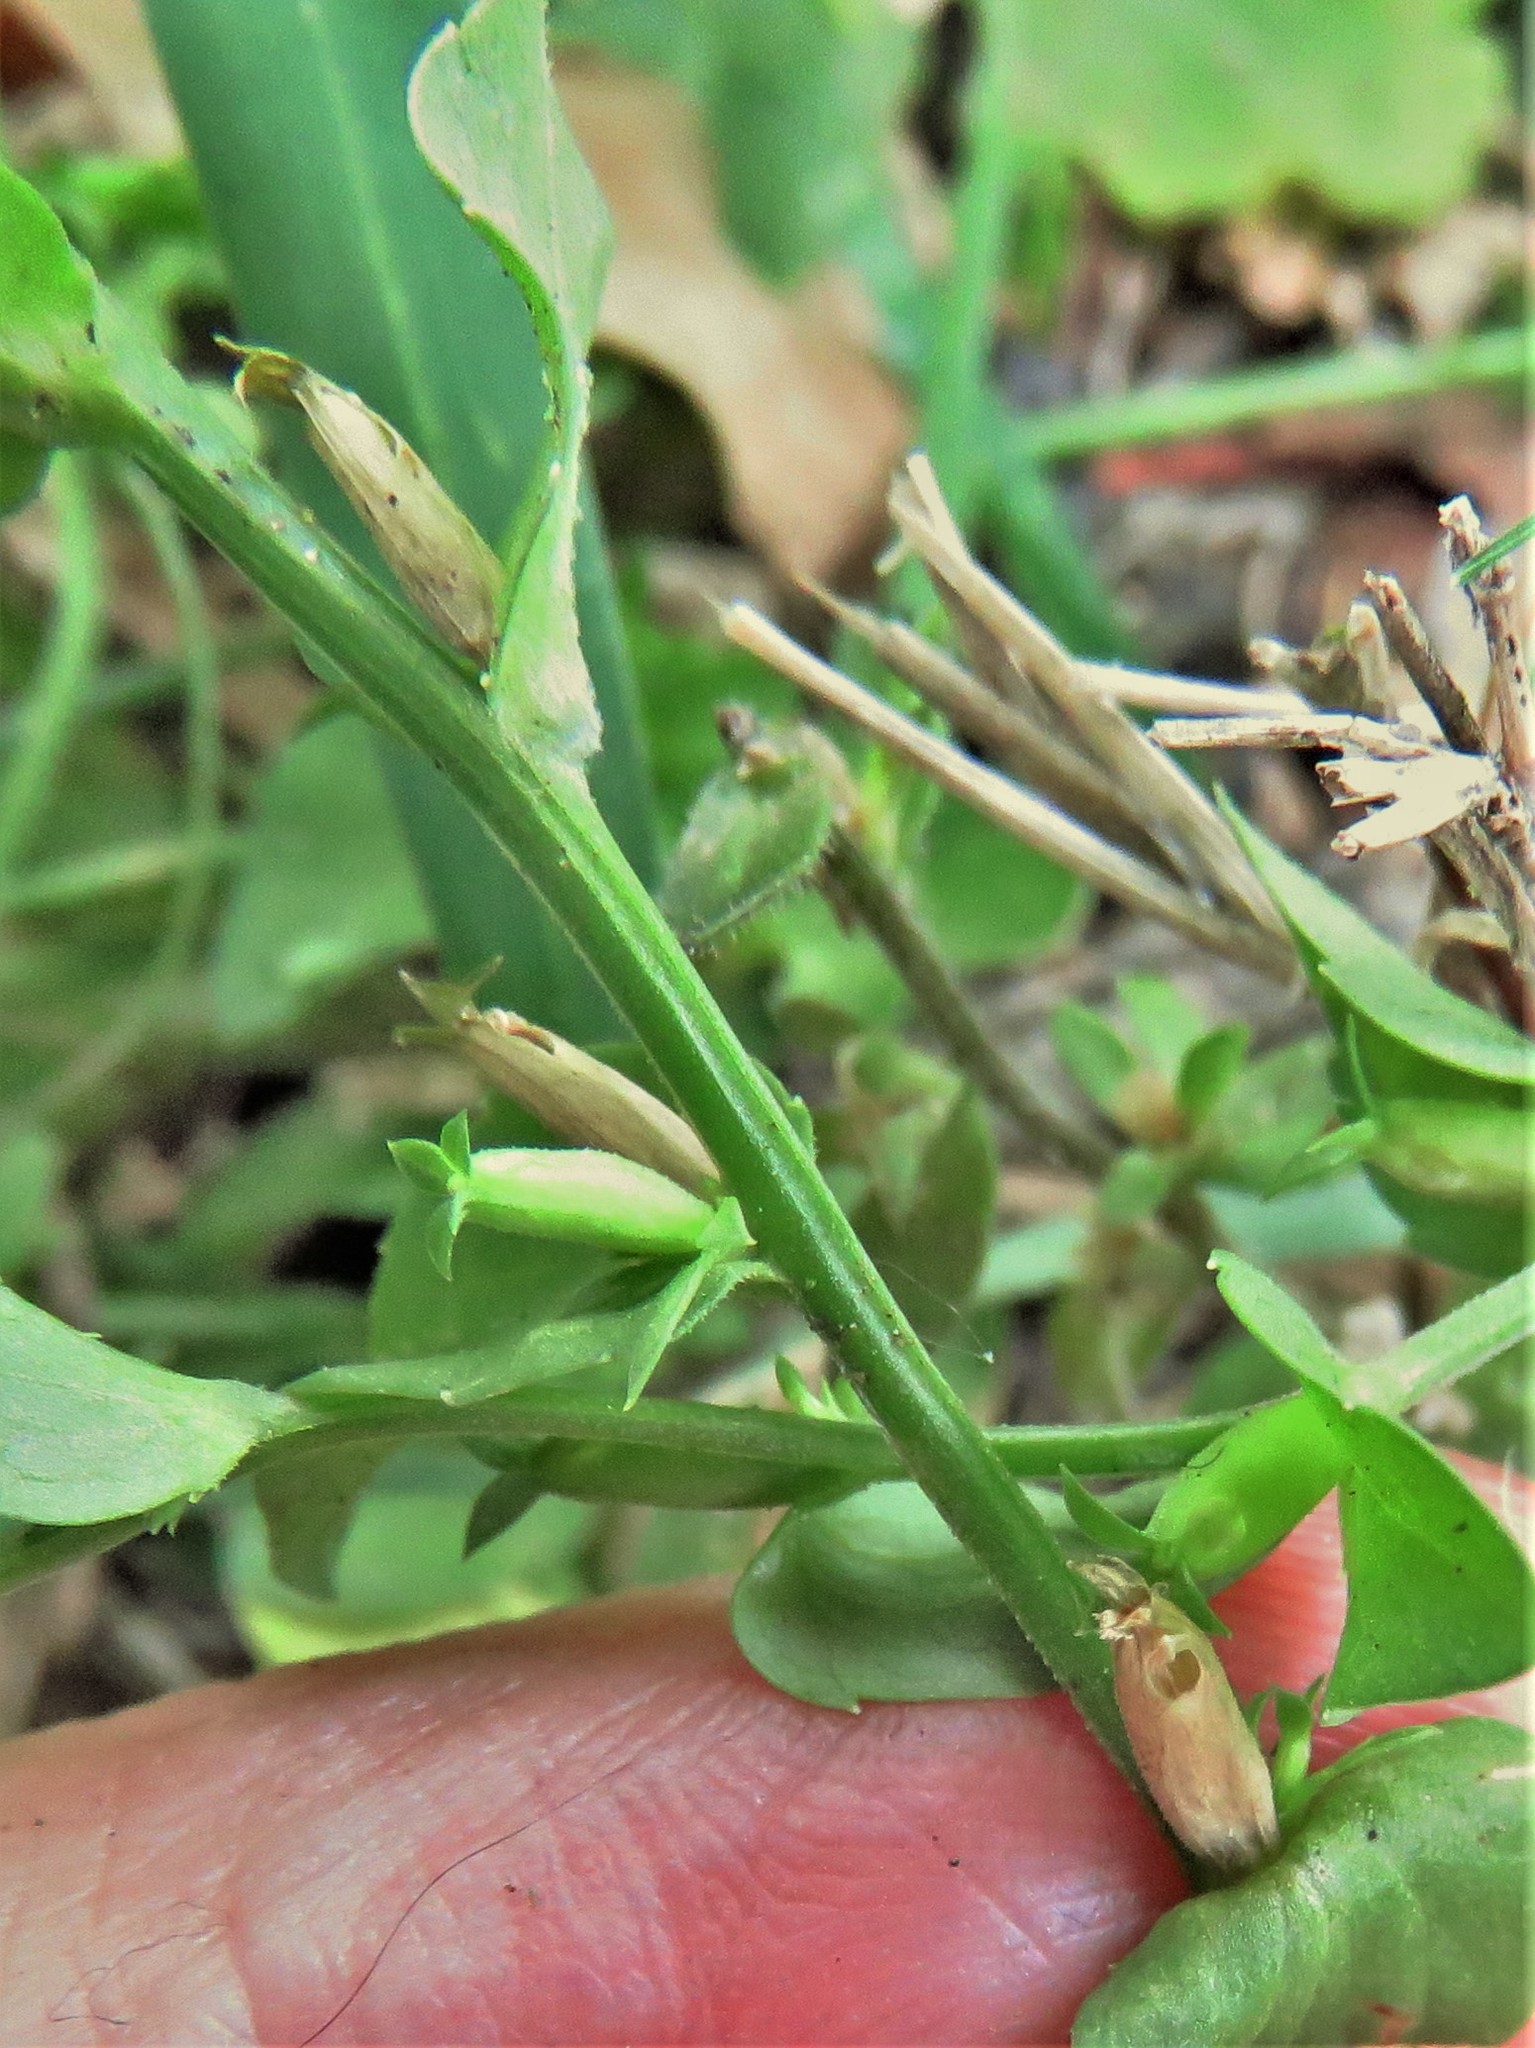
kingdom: Plantae
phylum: Tracheophyta
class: Magnoliopsida
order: Asterales
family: Campanulaceae
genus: Triodanis
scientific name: Triodanis biflora
